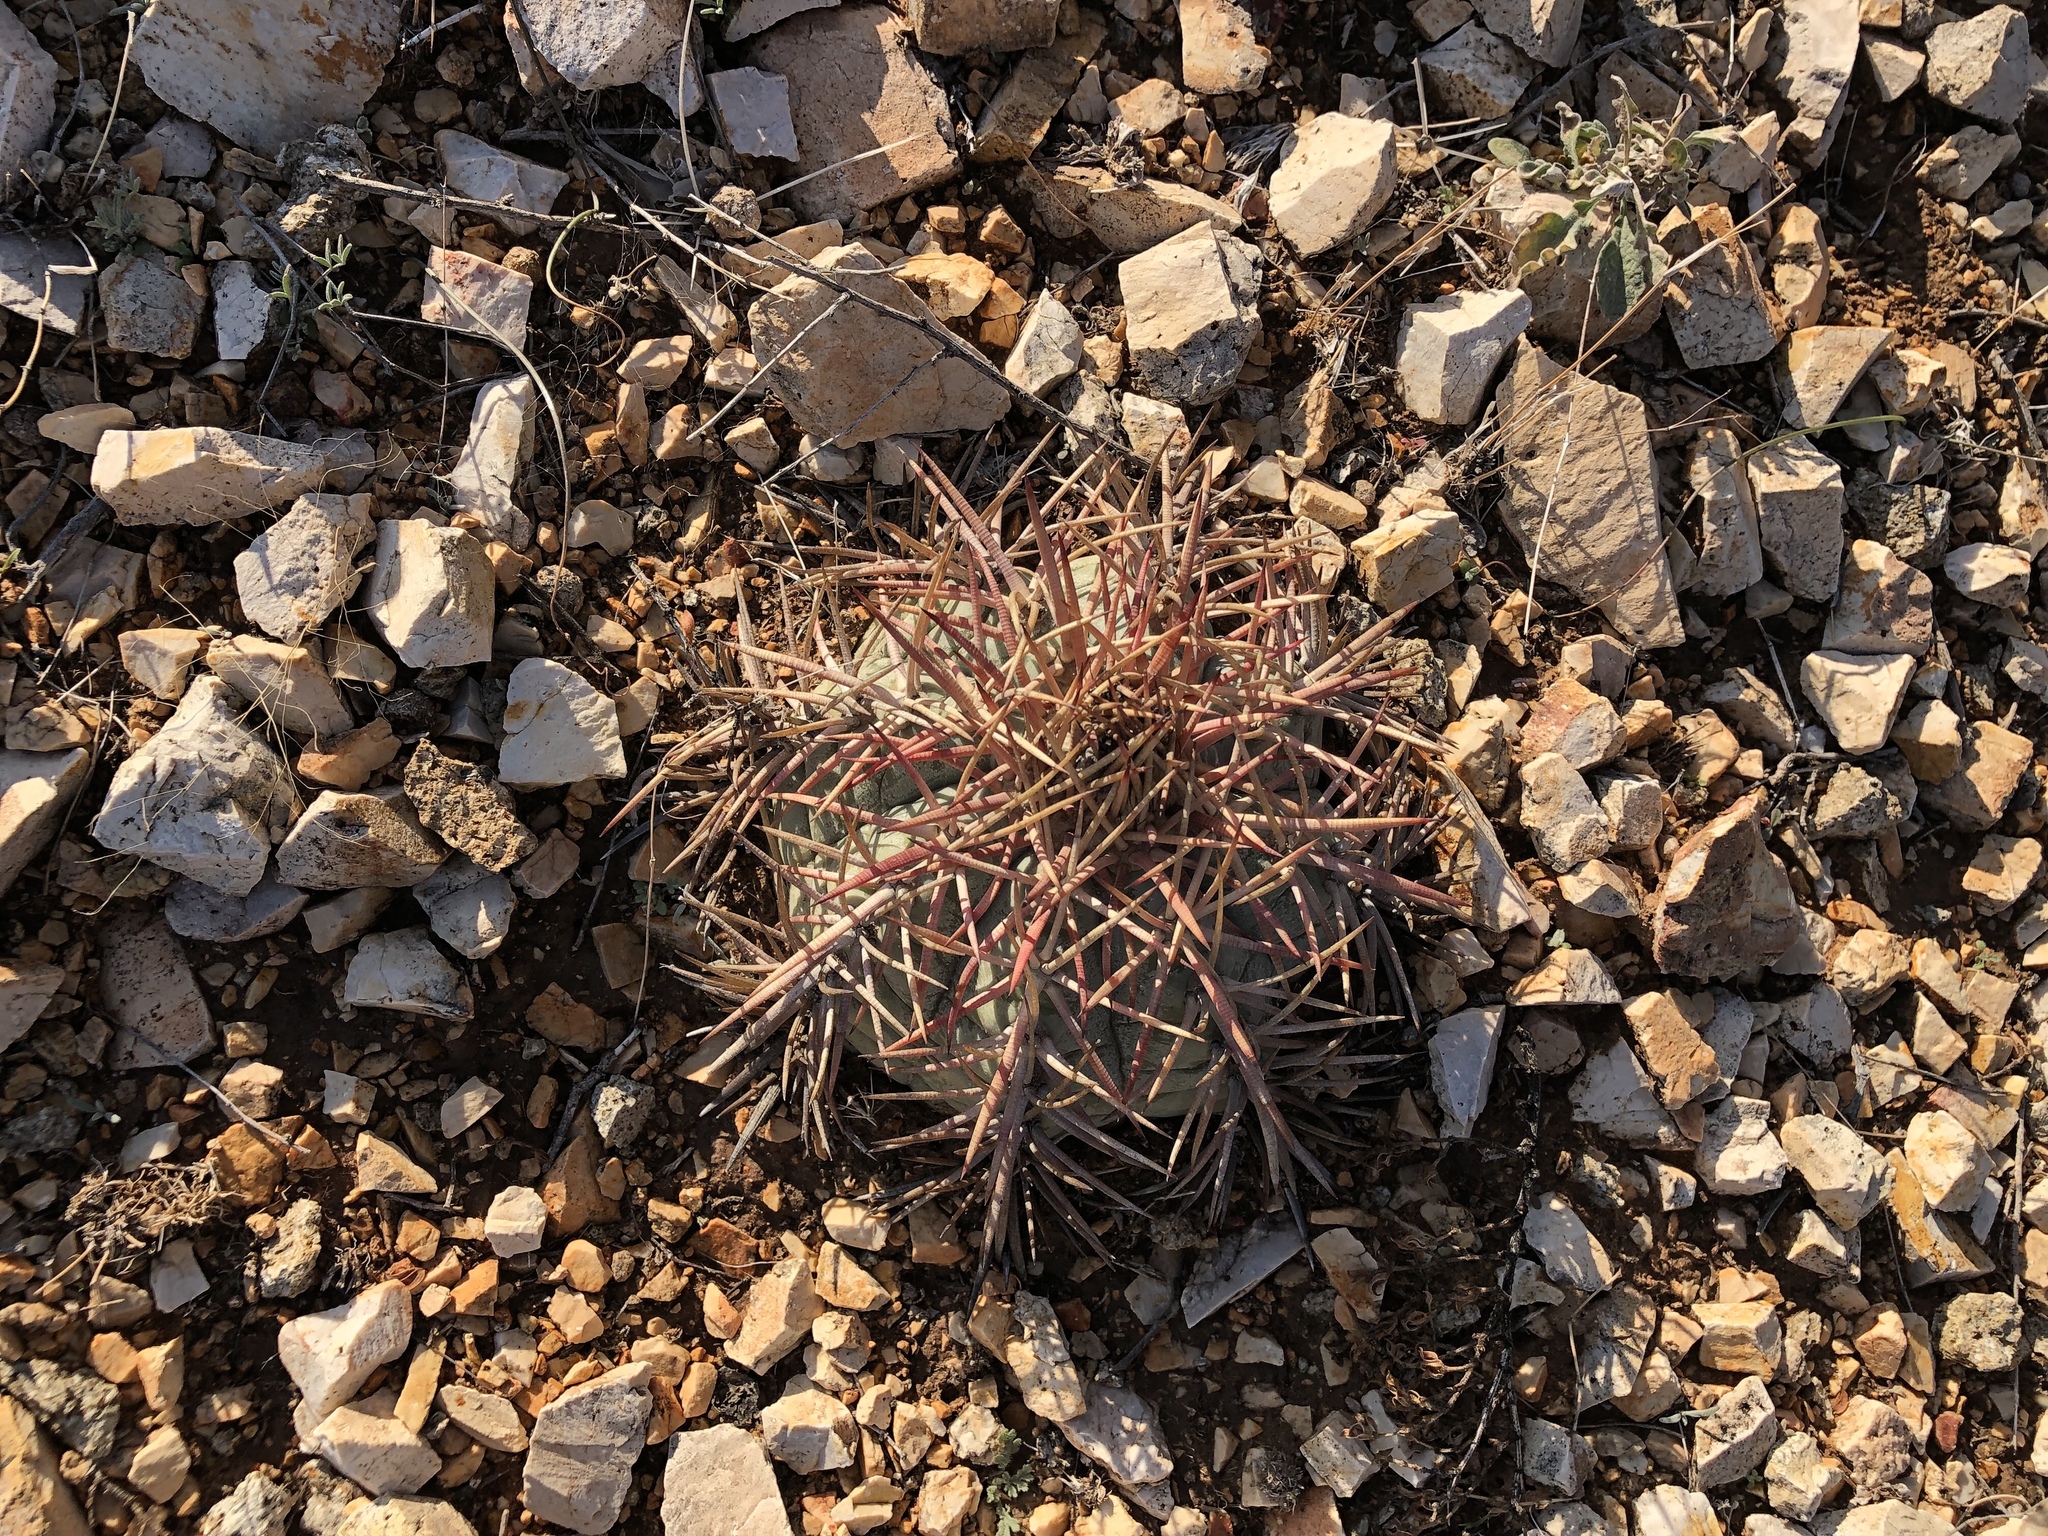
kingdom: Plantae
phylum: Tracheophyta
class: Magnoliopsida
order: Caryophyllales
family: Cactaceae
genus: Echinocactus
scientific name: Echinocactus horizonthalonius
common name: Devilshead
